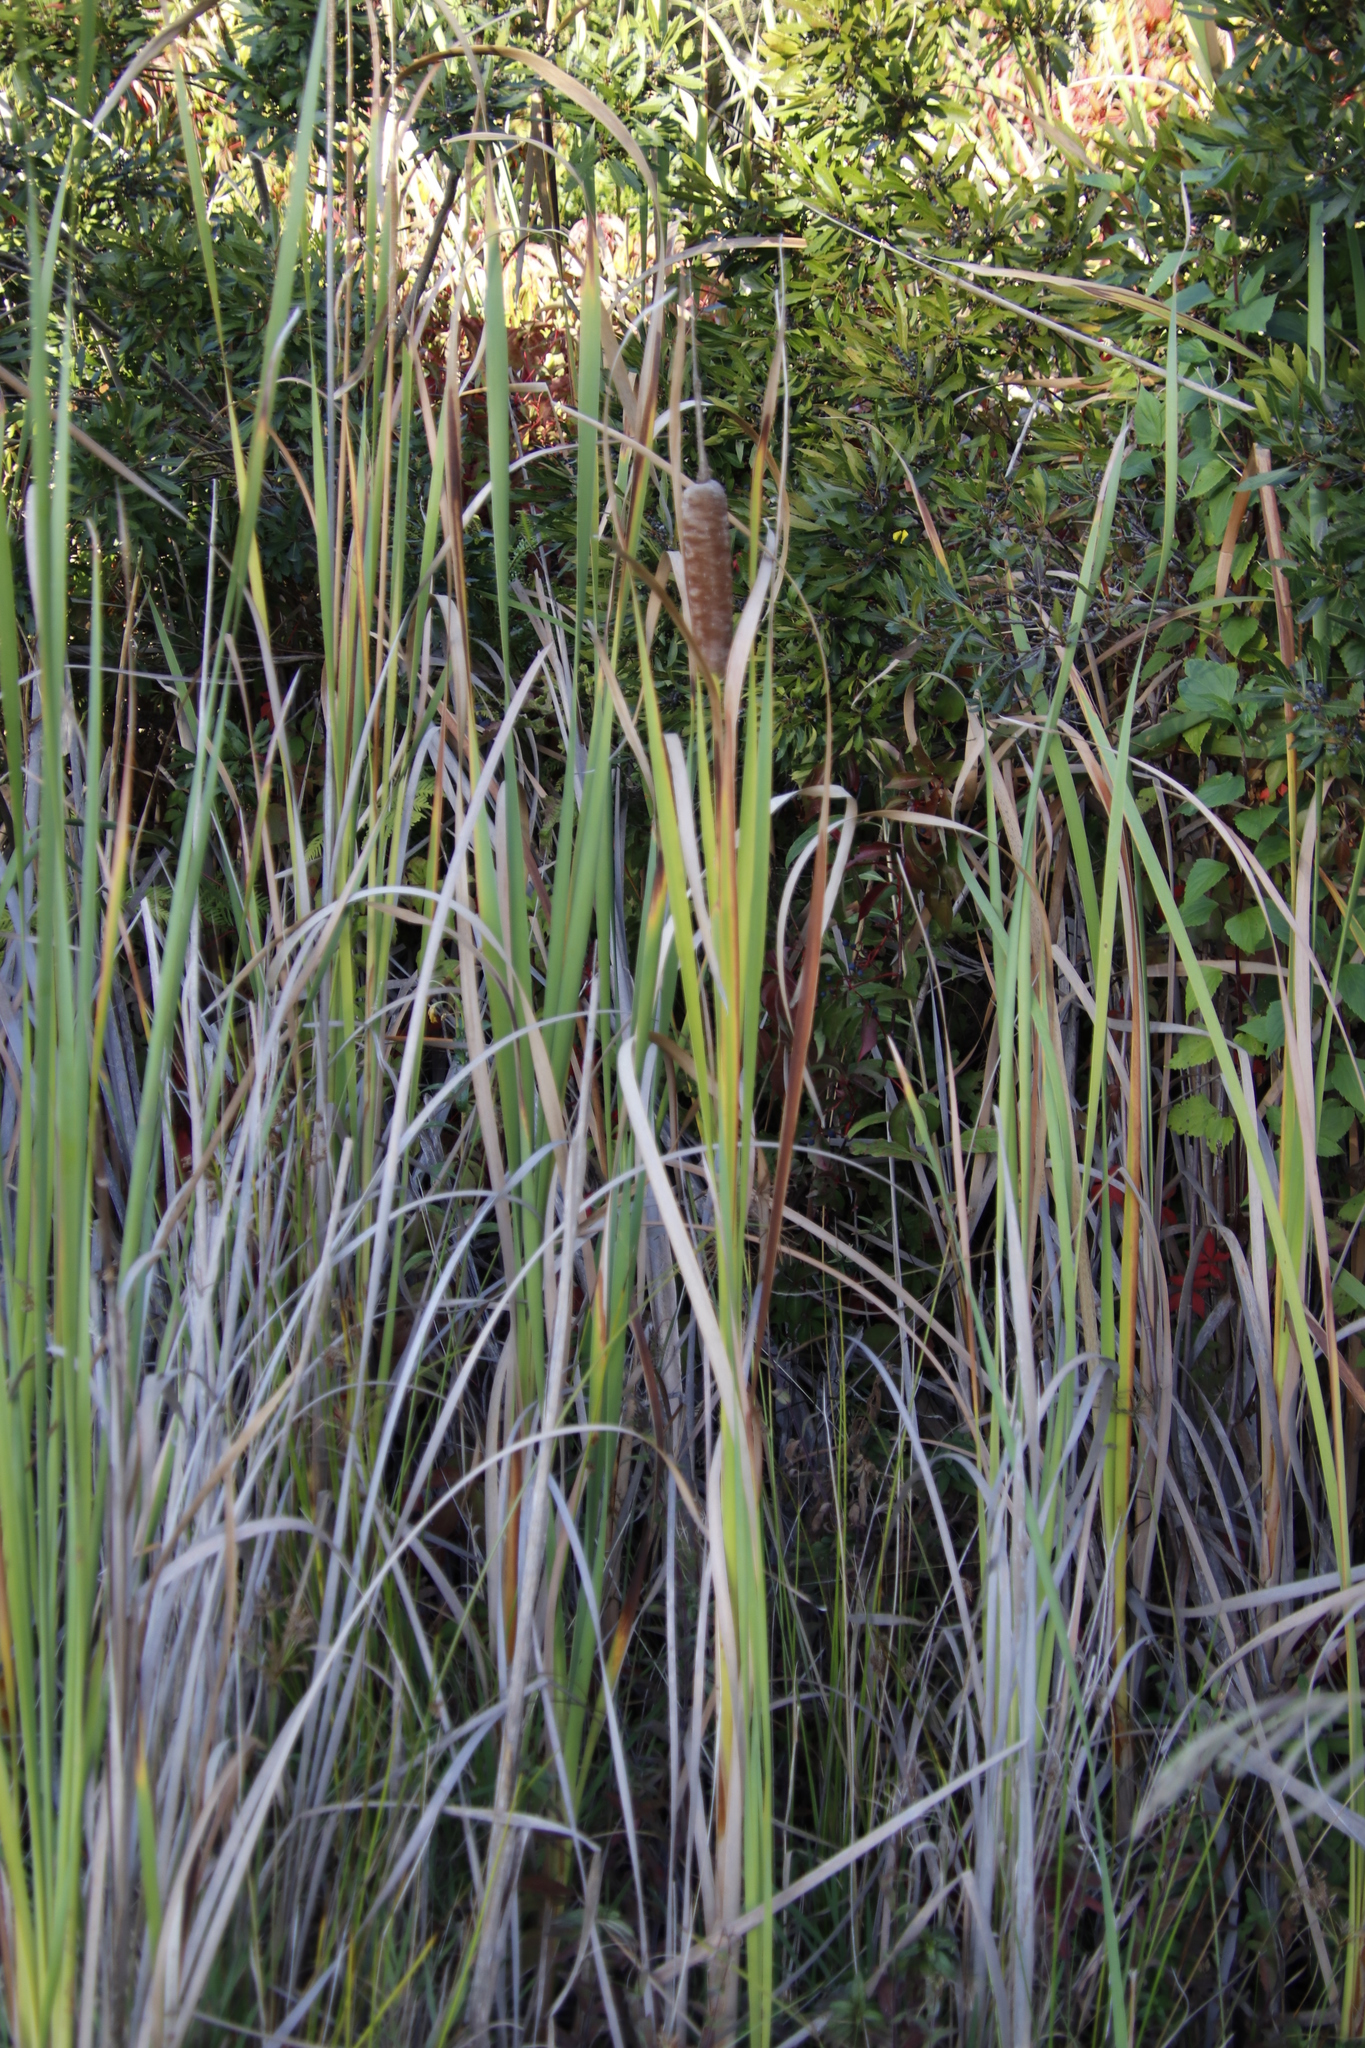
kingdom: Plantae
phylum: Tracheophyta
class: Liliopsida
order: Poales
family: Typhaceae
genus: Typha
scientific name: Typha capensis
